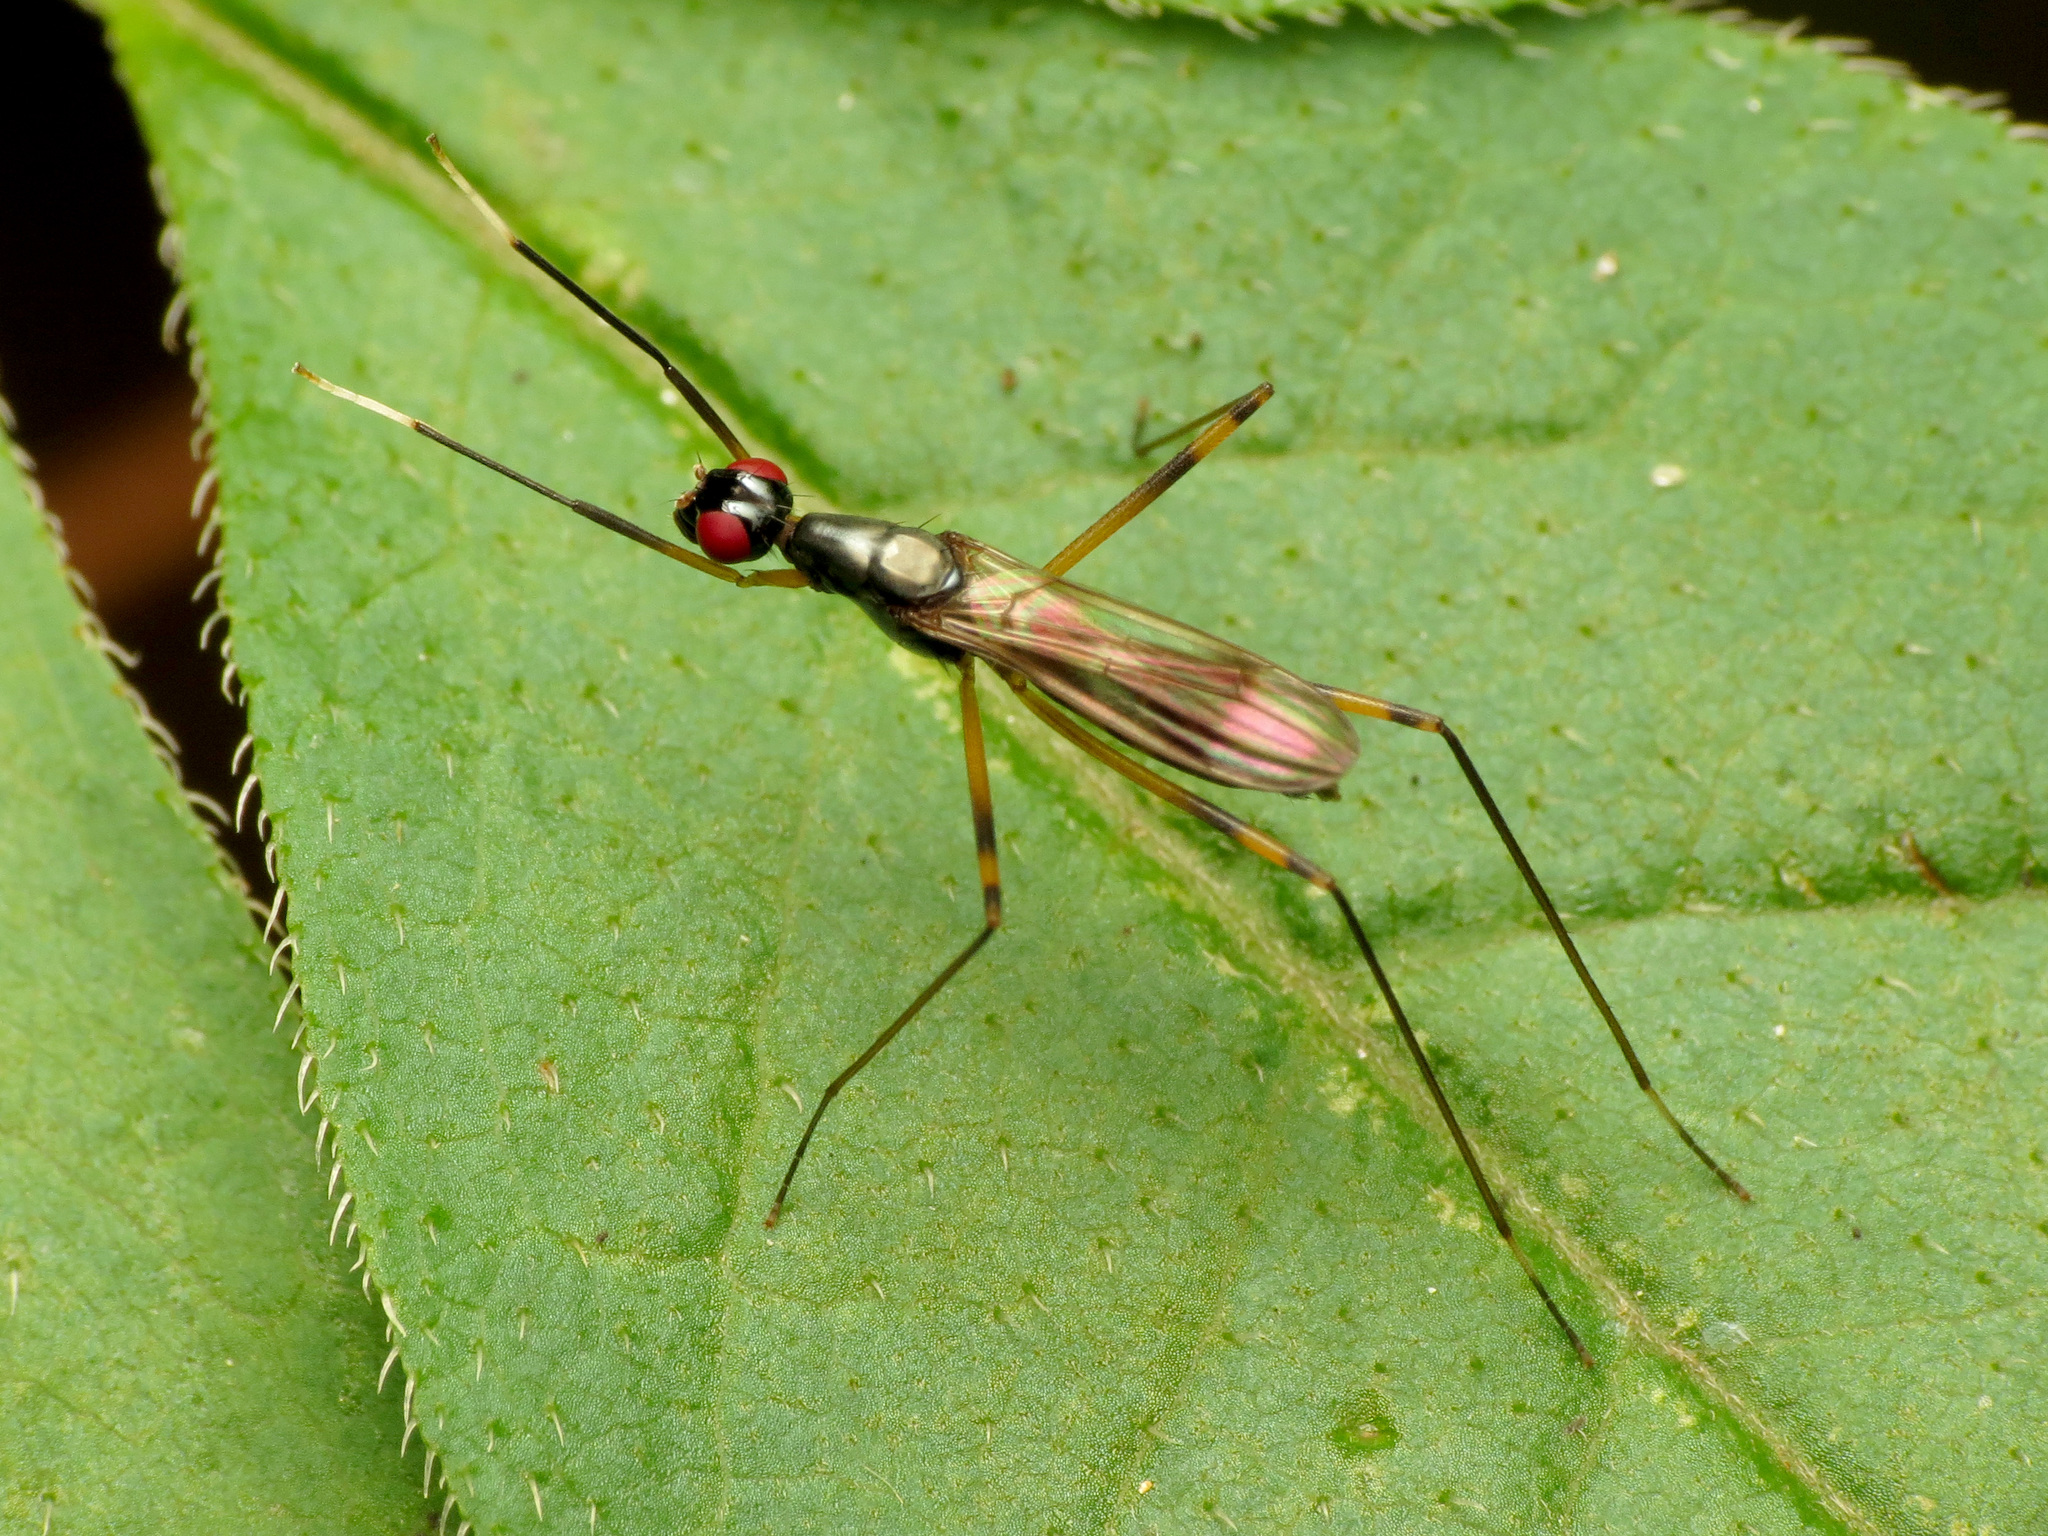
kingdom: Animalia
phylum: Arthropoda
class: Insecta
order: Diptera
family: Micropezidae
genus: Rainieria
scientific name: Rainieria antennaepes
